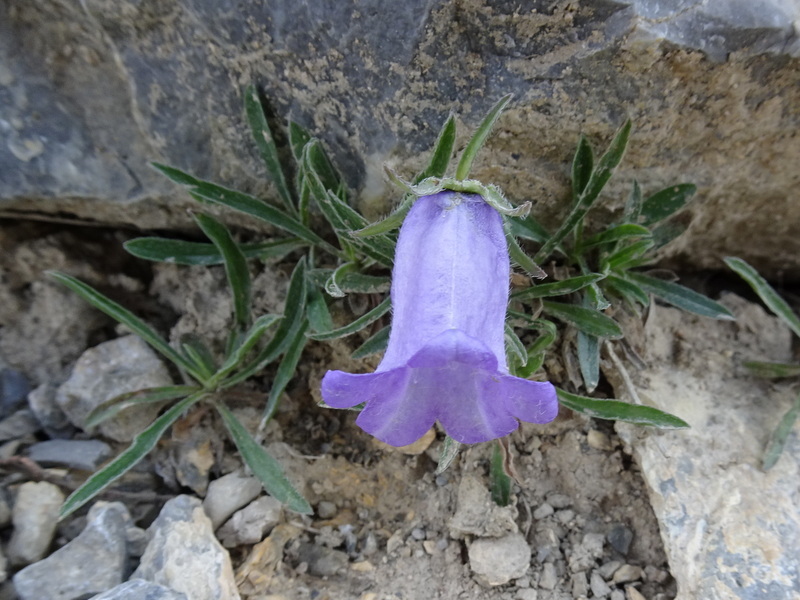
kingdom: Plantae
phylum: Tracheophyta
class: Magnoliopsida
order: Asterales
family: Campanulaceae
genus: Campanula
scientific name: Campanula alpestris
